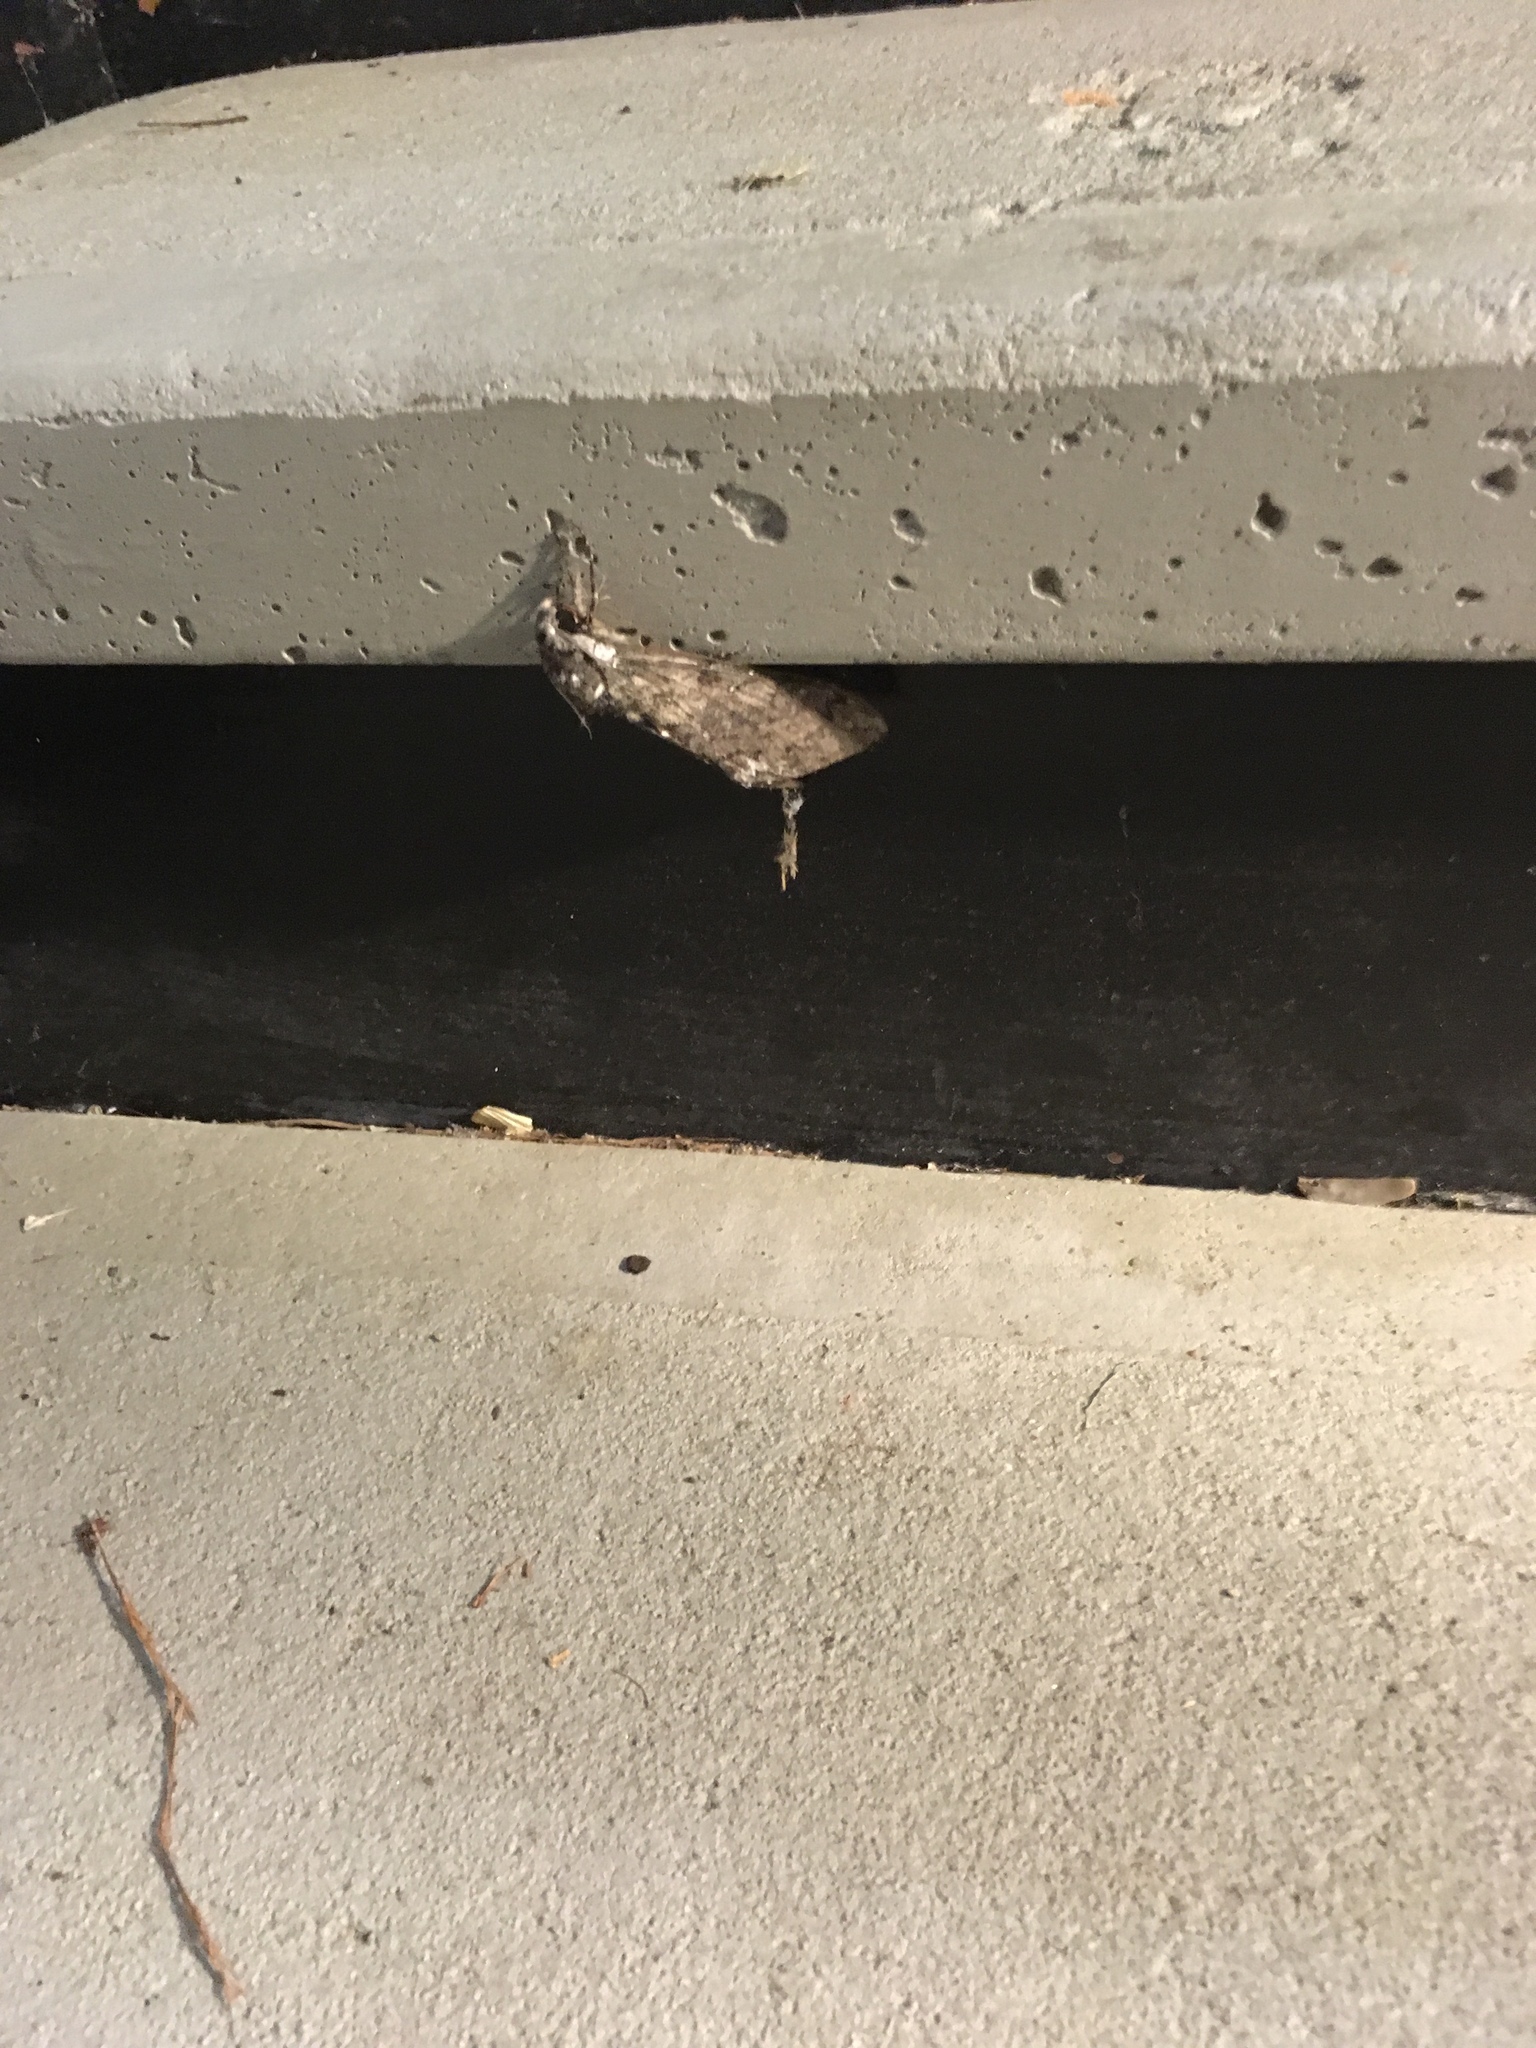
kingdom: Animalia
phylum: Arthropoda
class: Insecta
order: Lepidoptera
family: Sphingidae
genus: Manduca
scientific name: Manduca sexta
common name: Carolina sphinx
